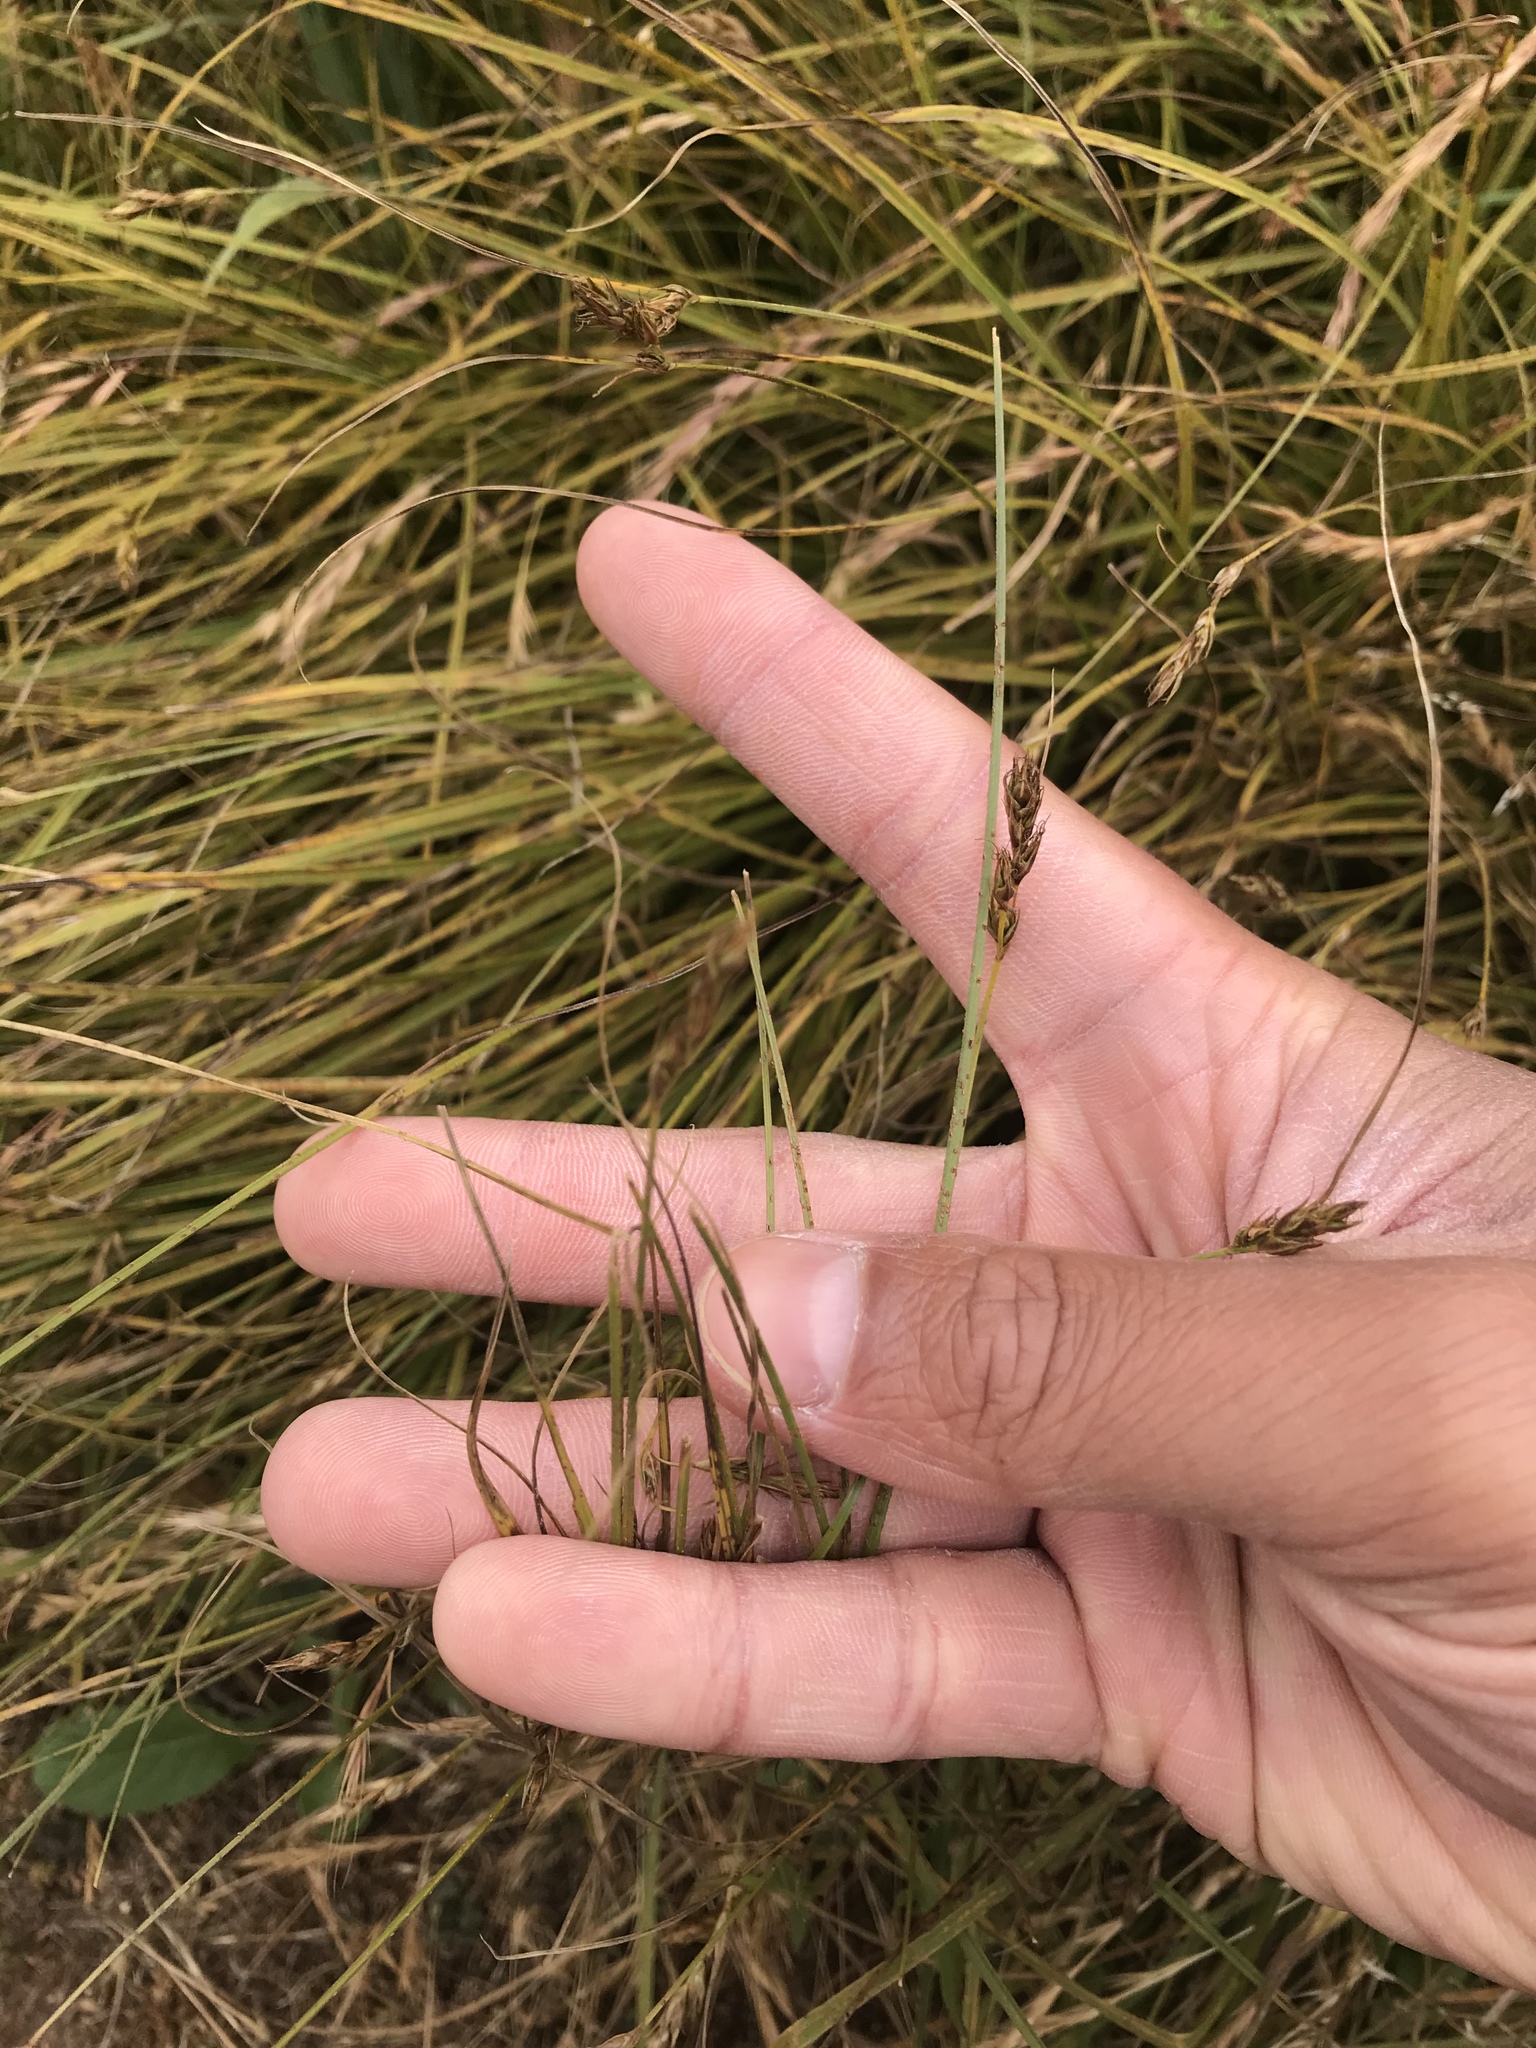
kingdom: Plantae
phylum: Tracheophyta
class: Liliopsida
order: Poales
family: Cyperaceae
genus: Carex
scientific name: Carex tumulicola
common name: Splitawn sedge
